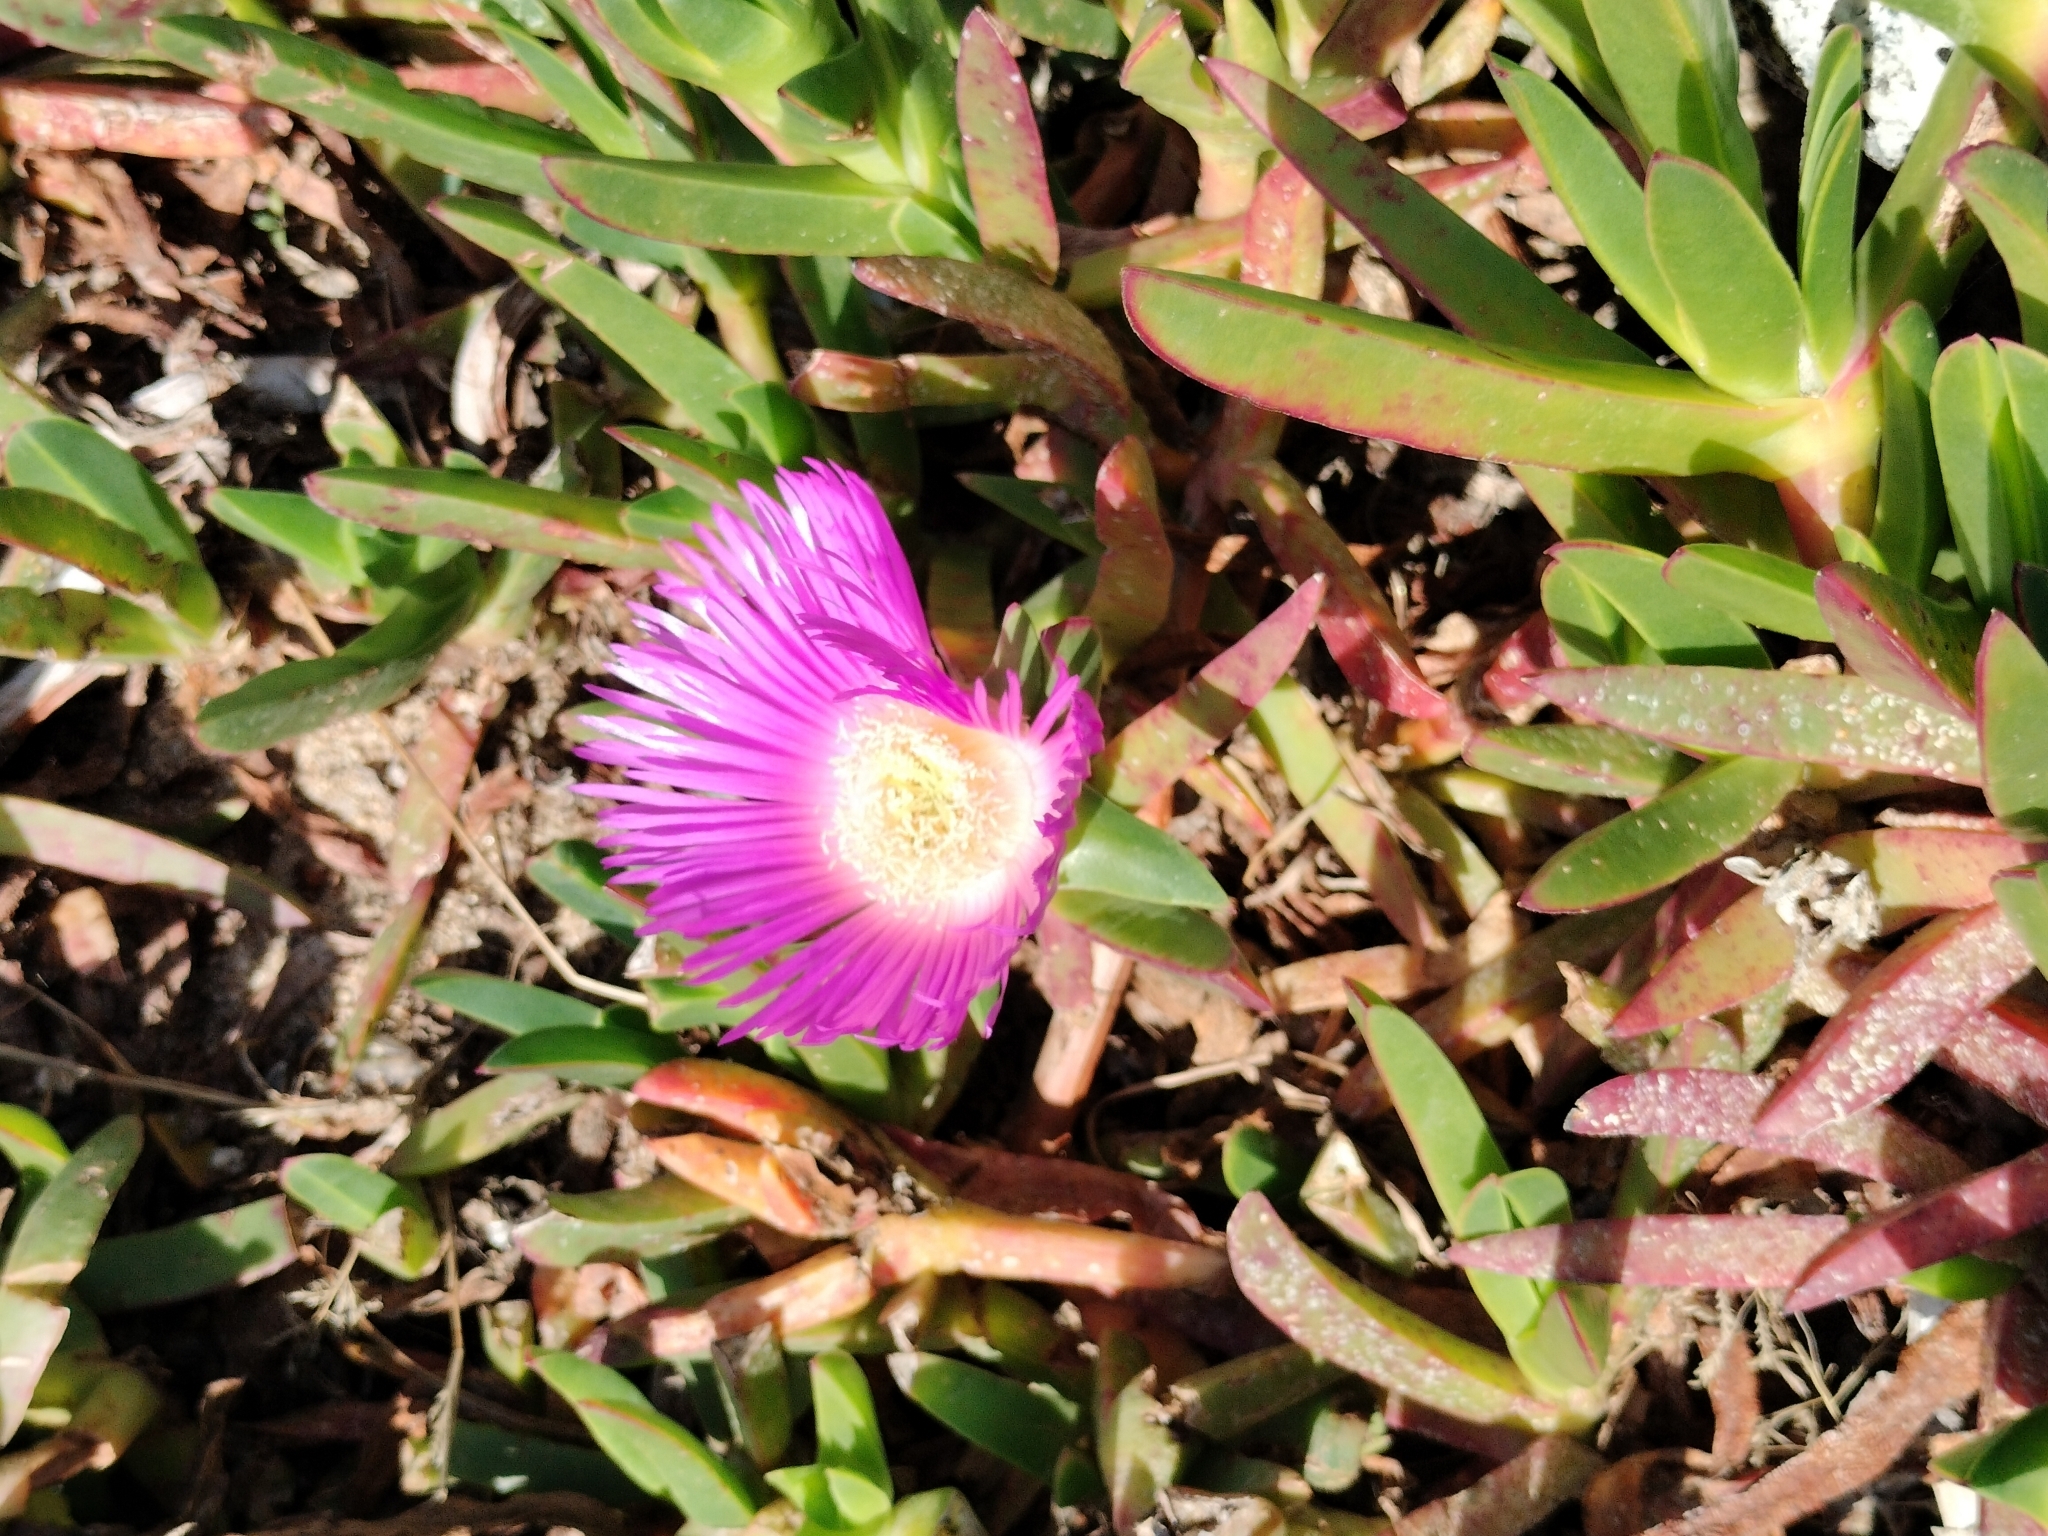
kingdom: Plantae
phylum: Tracheophyta
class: Magnoliopsida
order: Caryophyllales
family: Aizoaceae
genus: Carpobrotus
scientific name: Carpobrotus acinaciformis
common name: Sally-my-handsome
